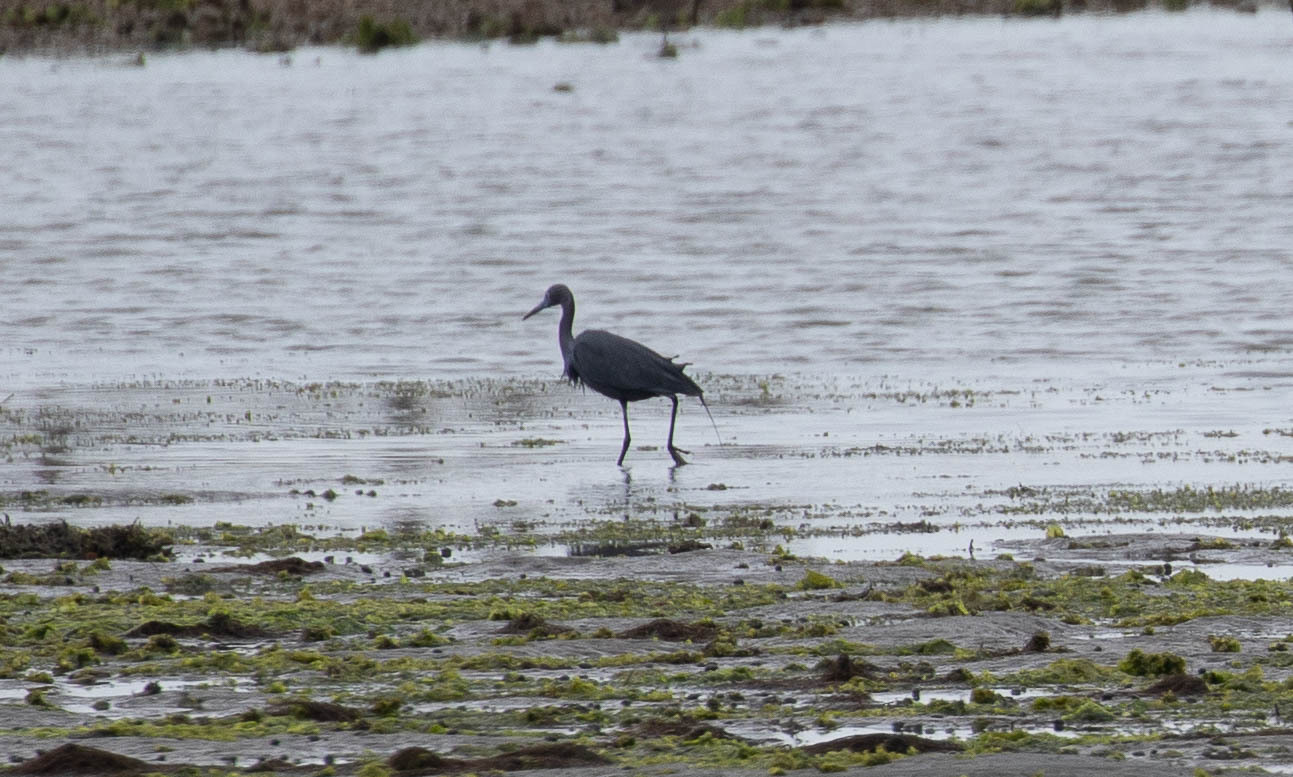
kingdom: Animalia
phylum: Chordata
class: Aves
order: Pelecaniformes
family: Ardeidae
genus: Egretta
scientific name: Egretta caerulea
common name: Little blue heron
